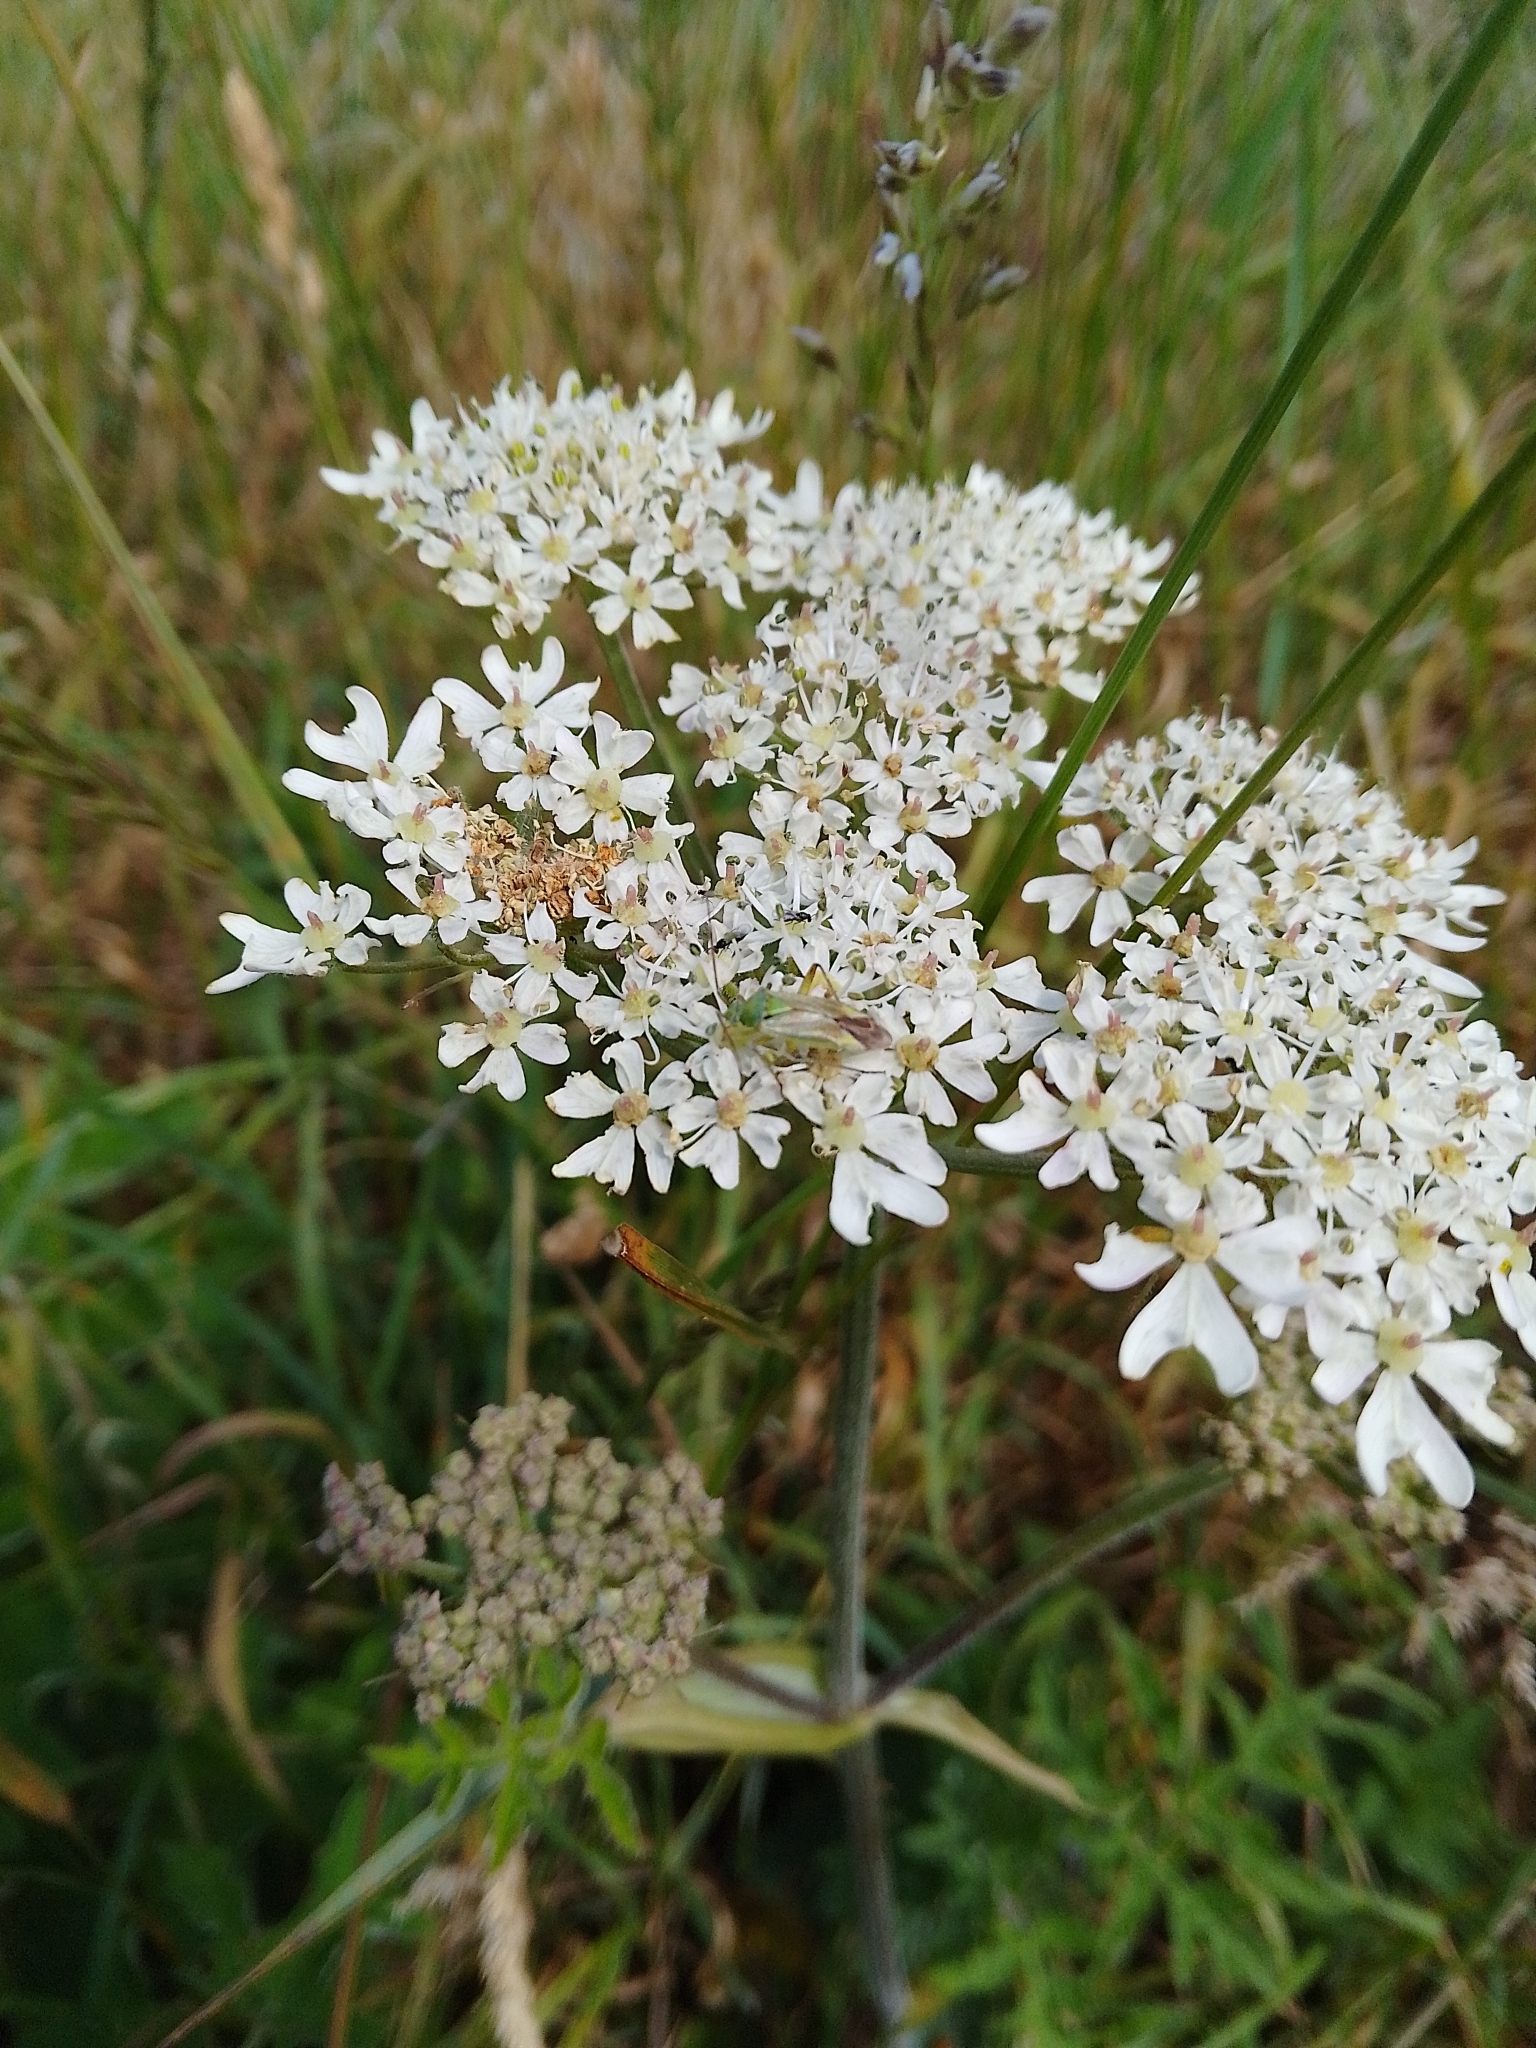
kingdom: Plantae
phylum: Tracheophyta
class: Magnoliopsida
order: Apiales
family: Apiaceae
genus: Heracleum
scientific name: Heracleum sphondylium
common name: Hogweed
